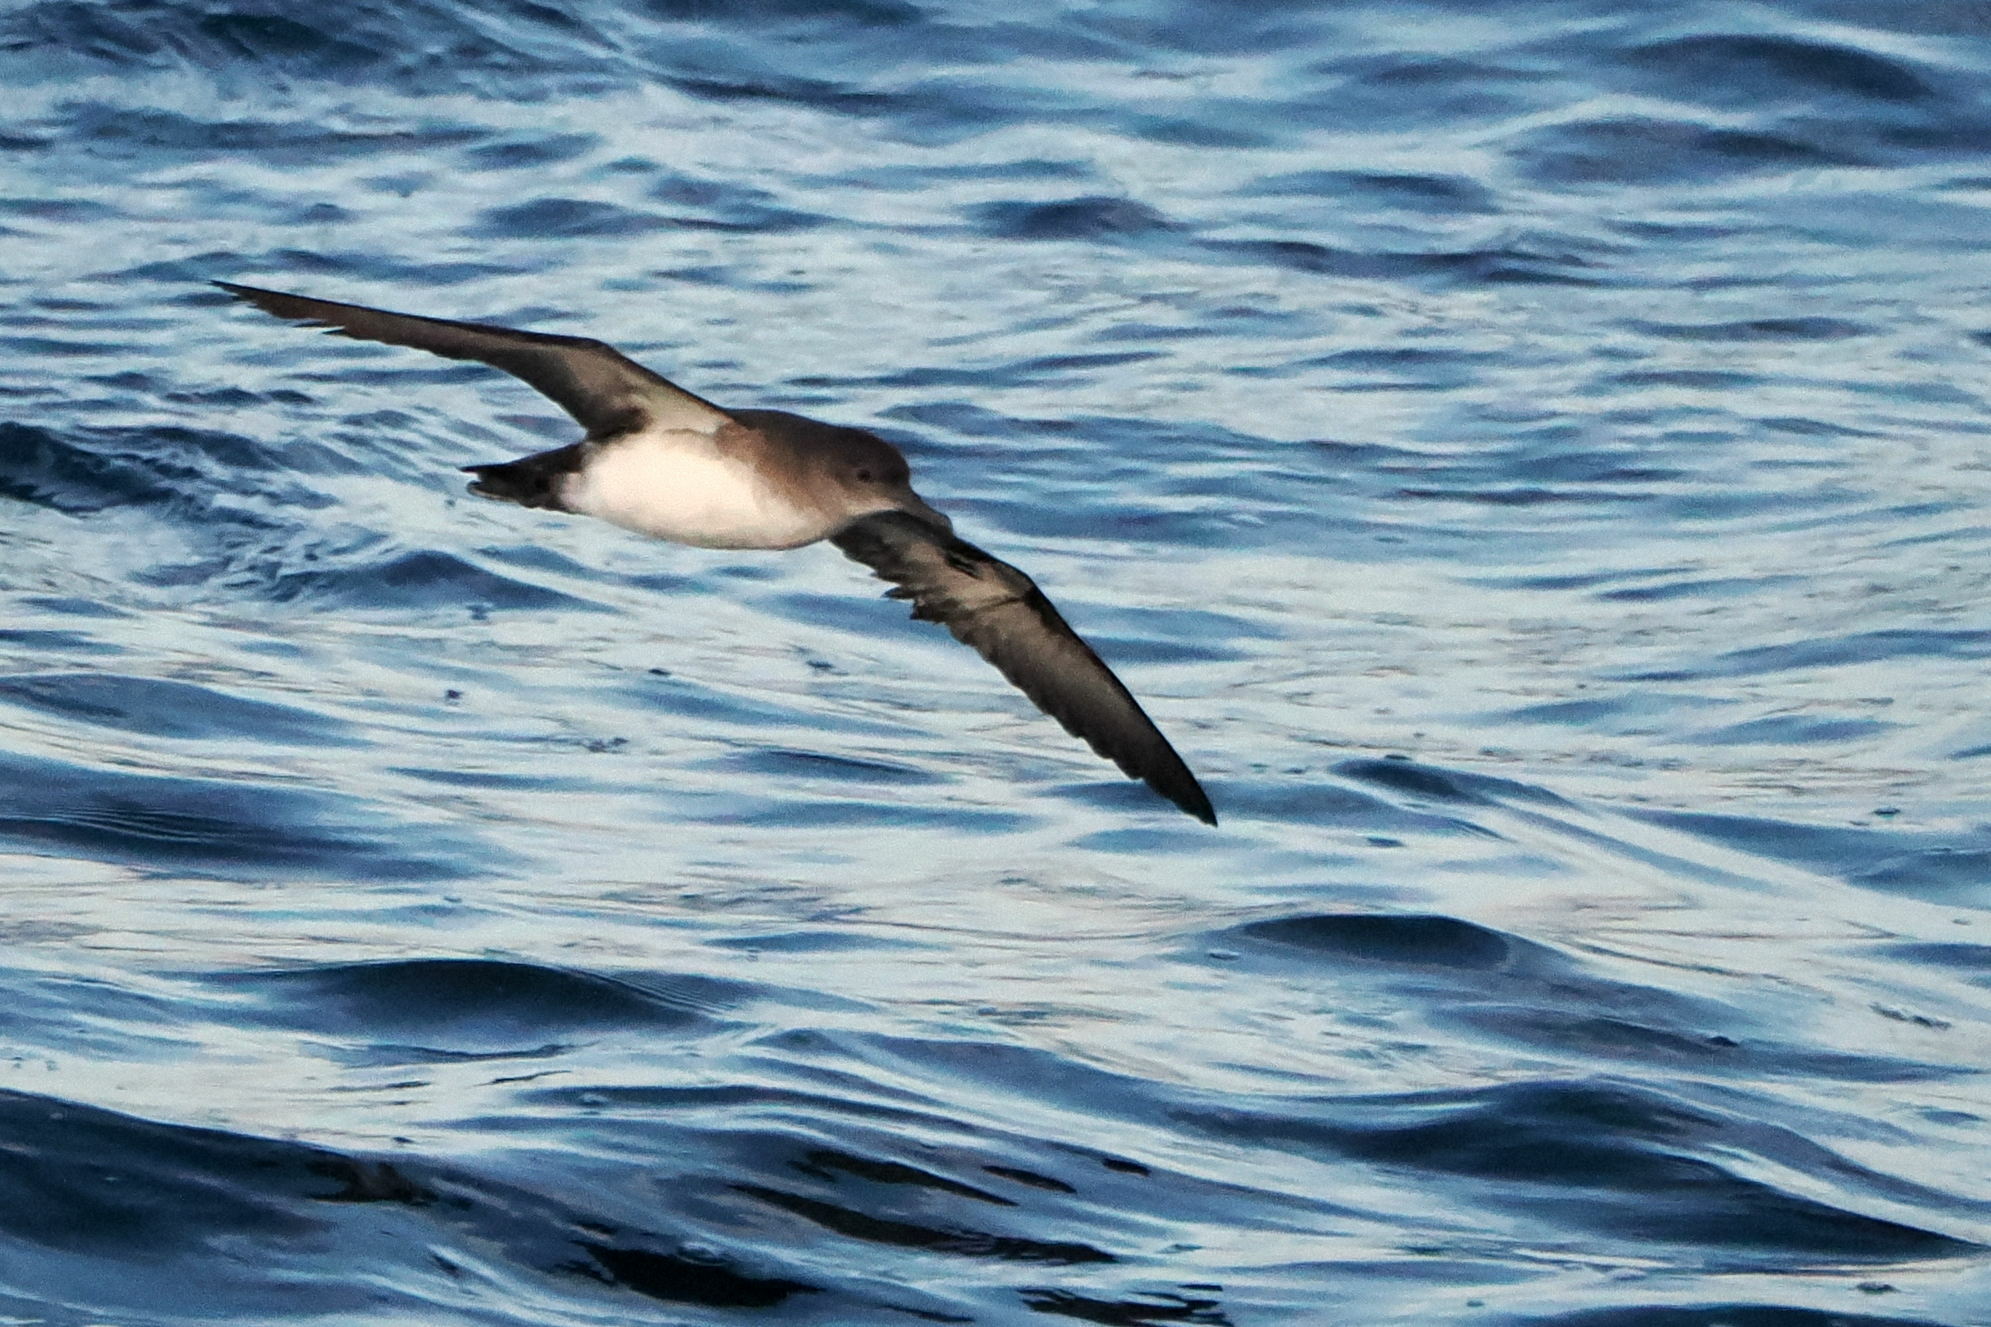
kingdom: Animalia
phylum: Chordata
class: Aves
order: Procellariiformes
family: Procellariidae
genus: Puffinus
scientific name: Puffinus opisthomelas
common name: Black-vented shearwater
